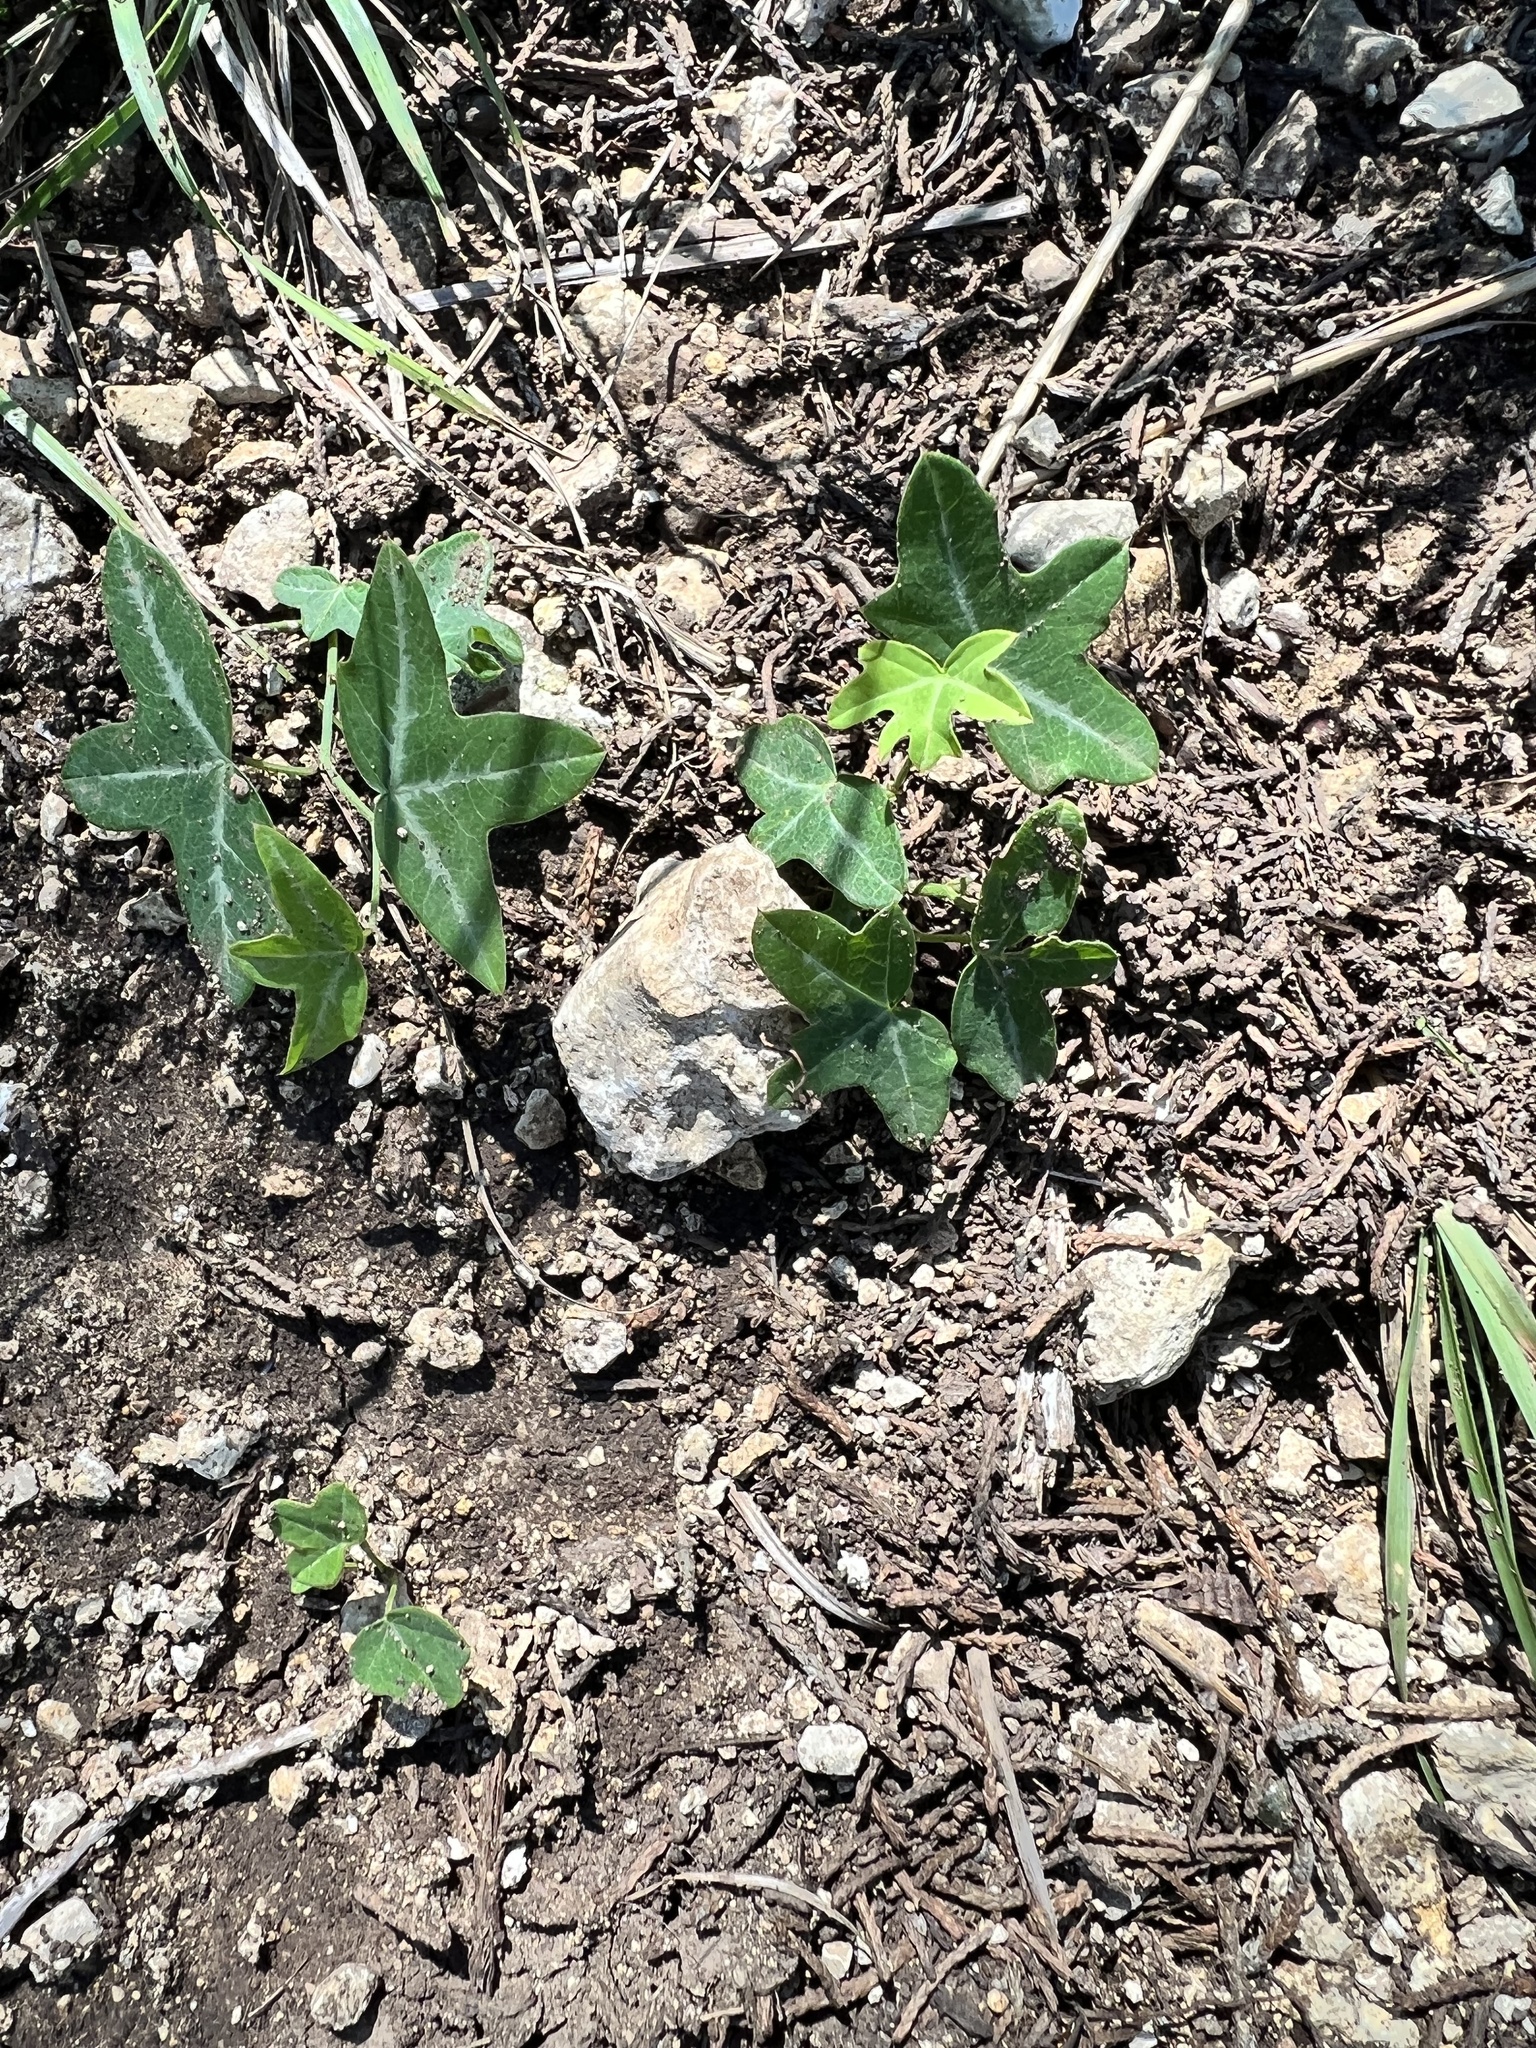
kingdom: Plantae
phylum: Tracheophyta
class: Magnoliopsida
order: Malpighiales
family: Passifloraceae
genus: Passiflora
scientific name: Passiflora tenuiloba
